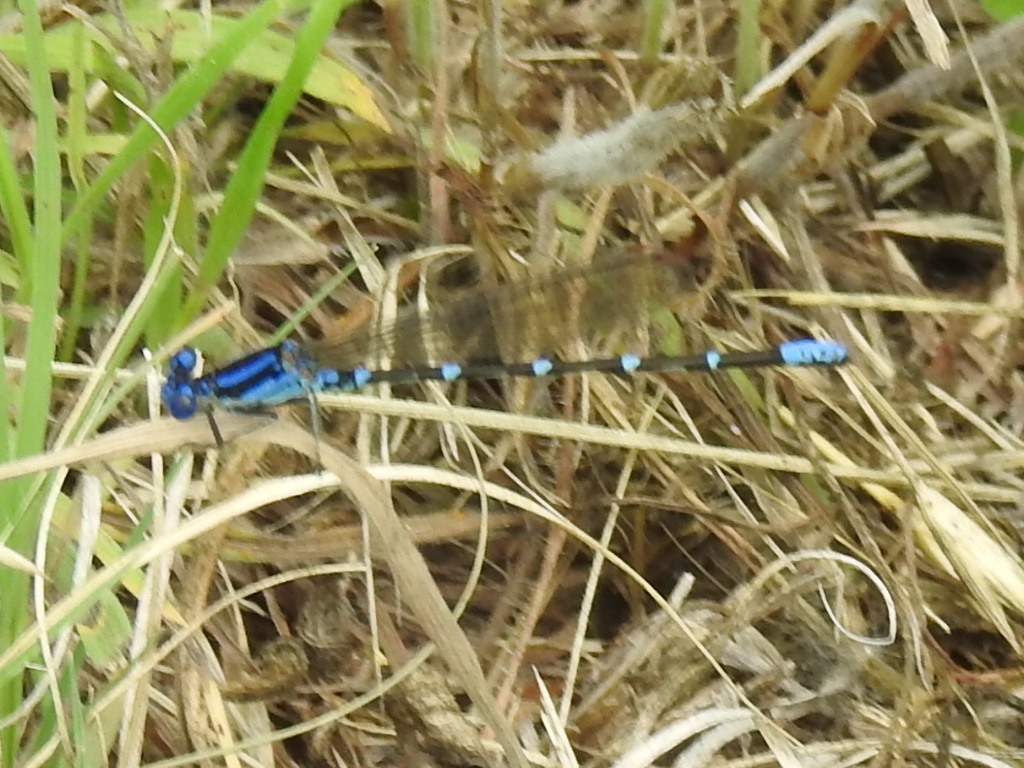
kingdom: Animalia
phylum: Arthropoda
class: Insecta
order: Odonata
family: Coenagrionidae
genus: Argia
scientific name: Argia sedula
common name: Blue-ringed dancer
